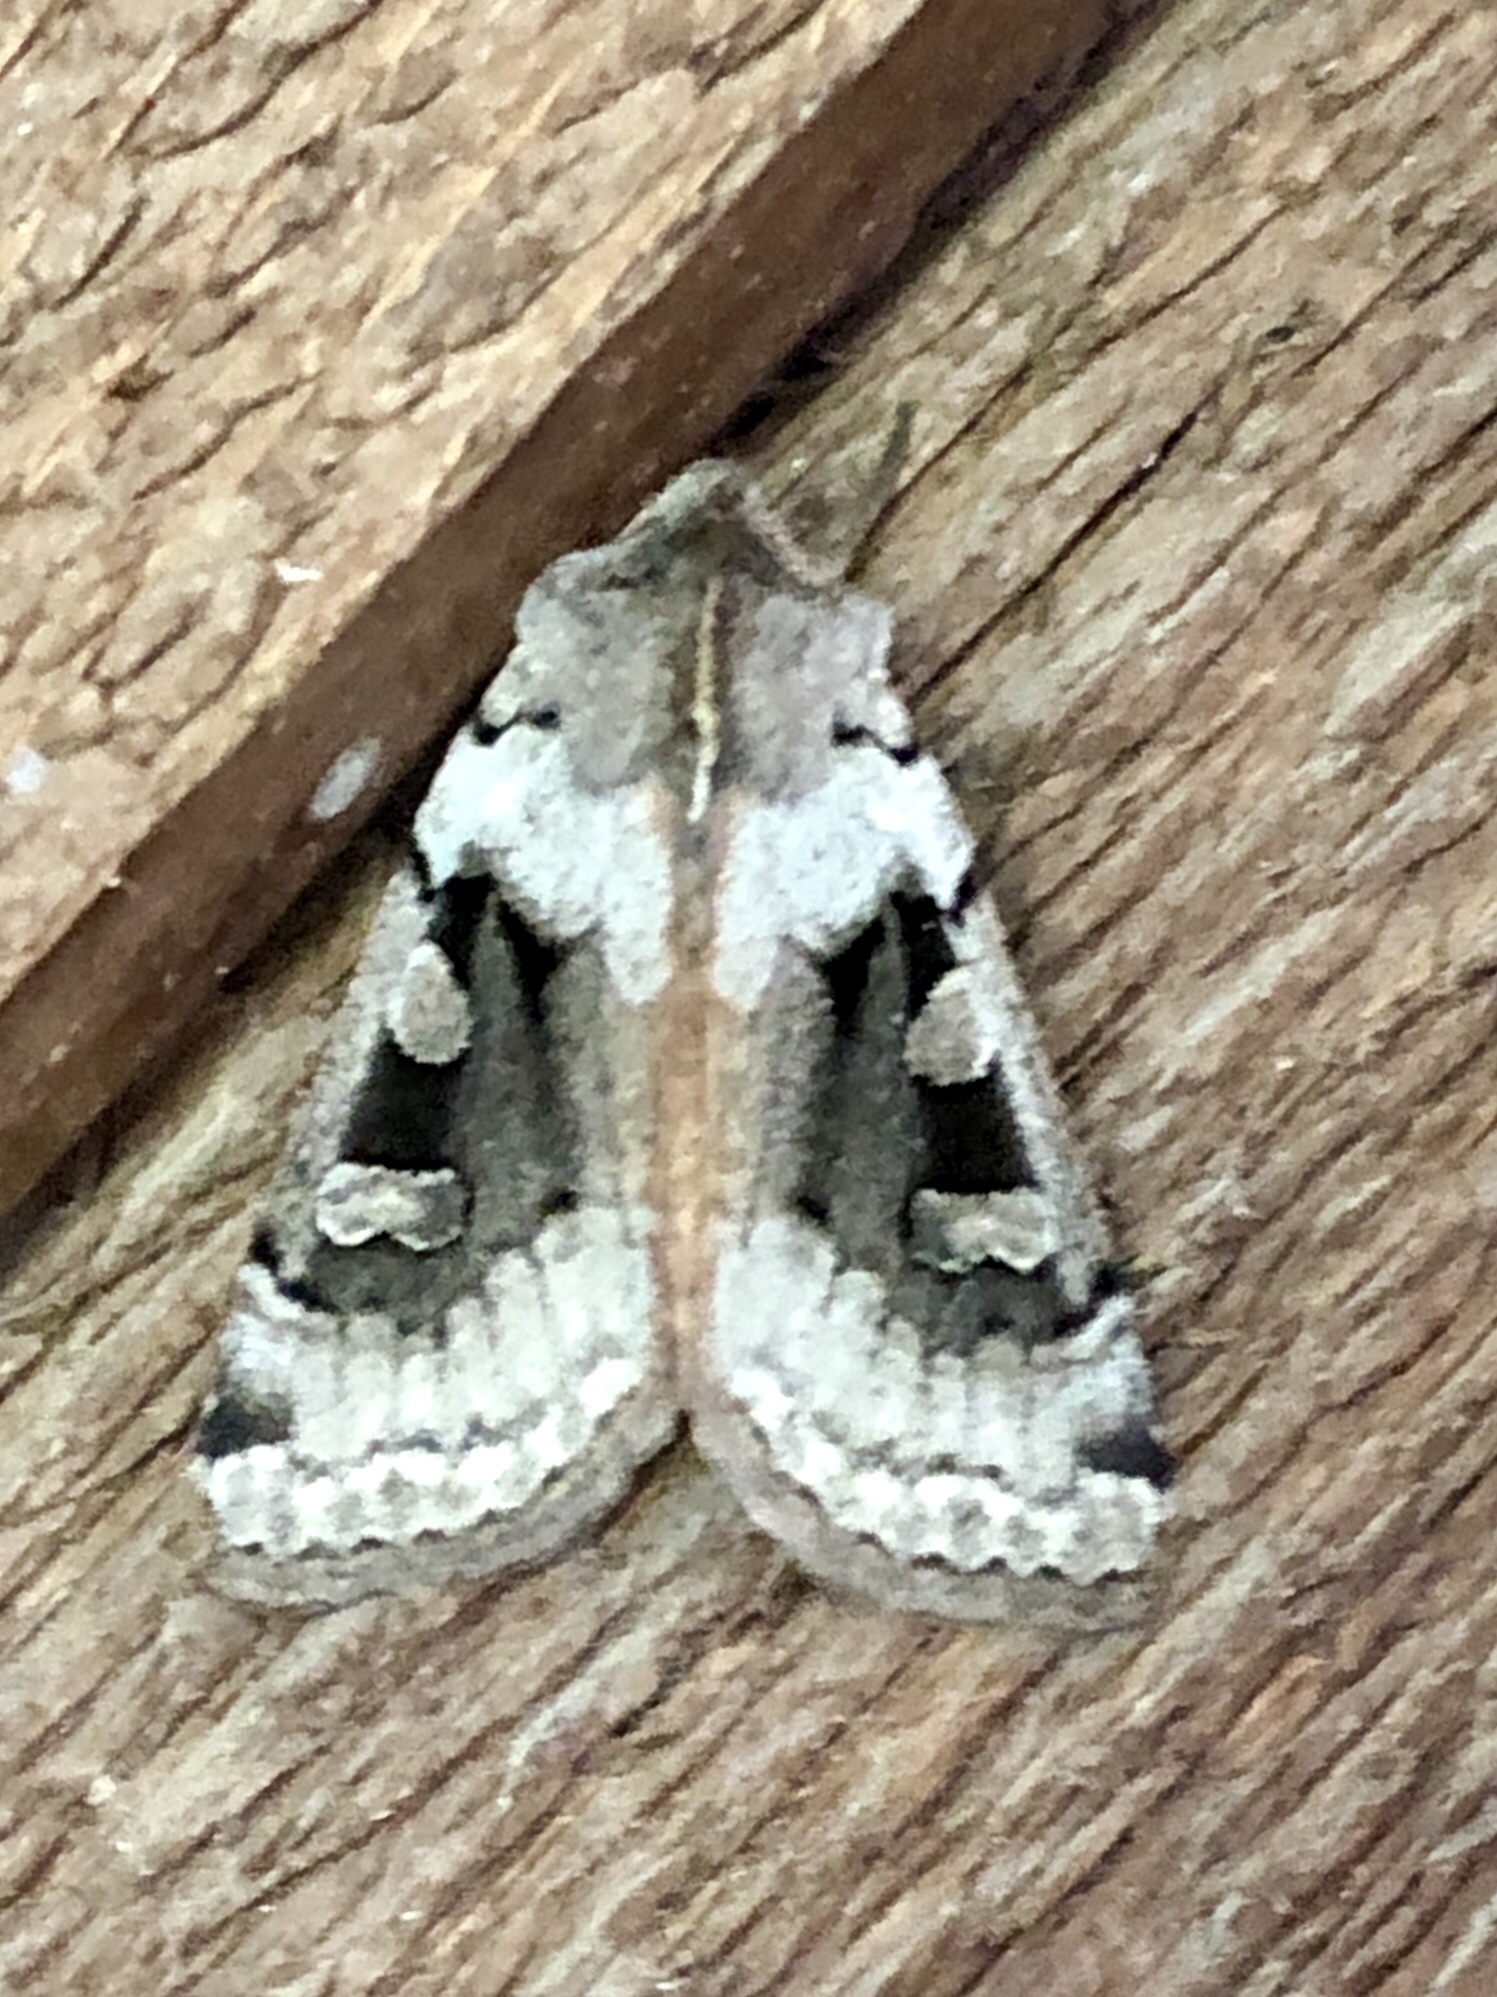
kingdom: Animalia
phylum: Arthropoda
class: Insecta
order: Lepidoptera
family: Noctuidae
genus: Richia
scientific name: Richia parentalis
